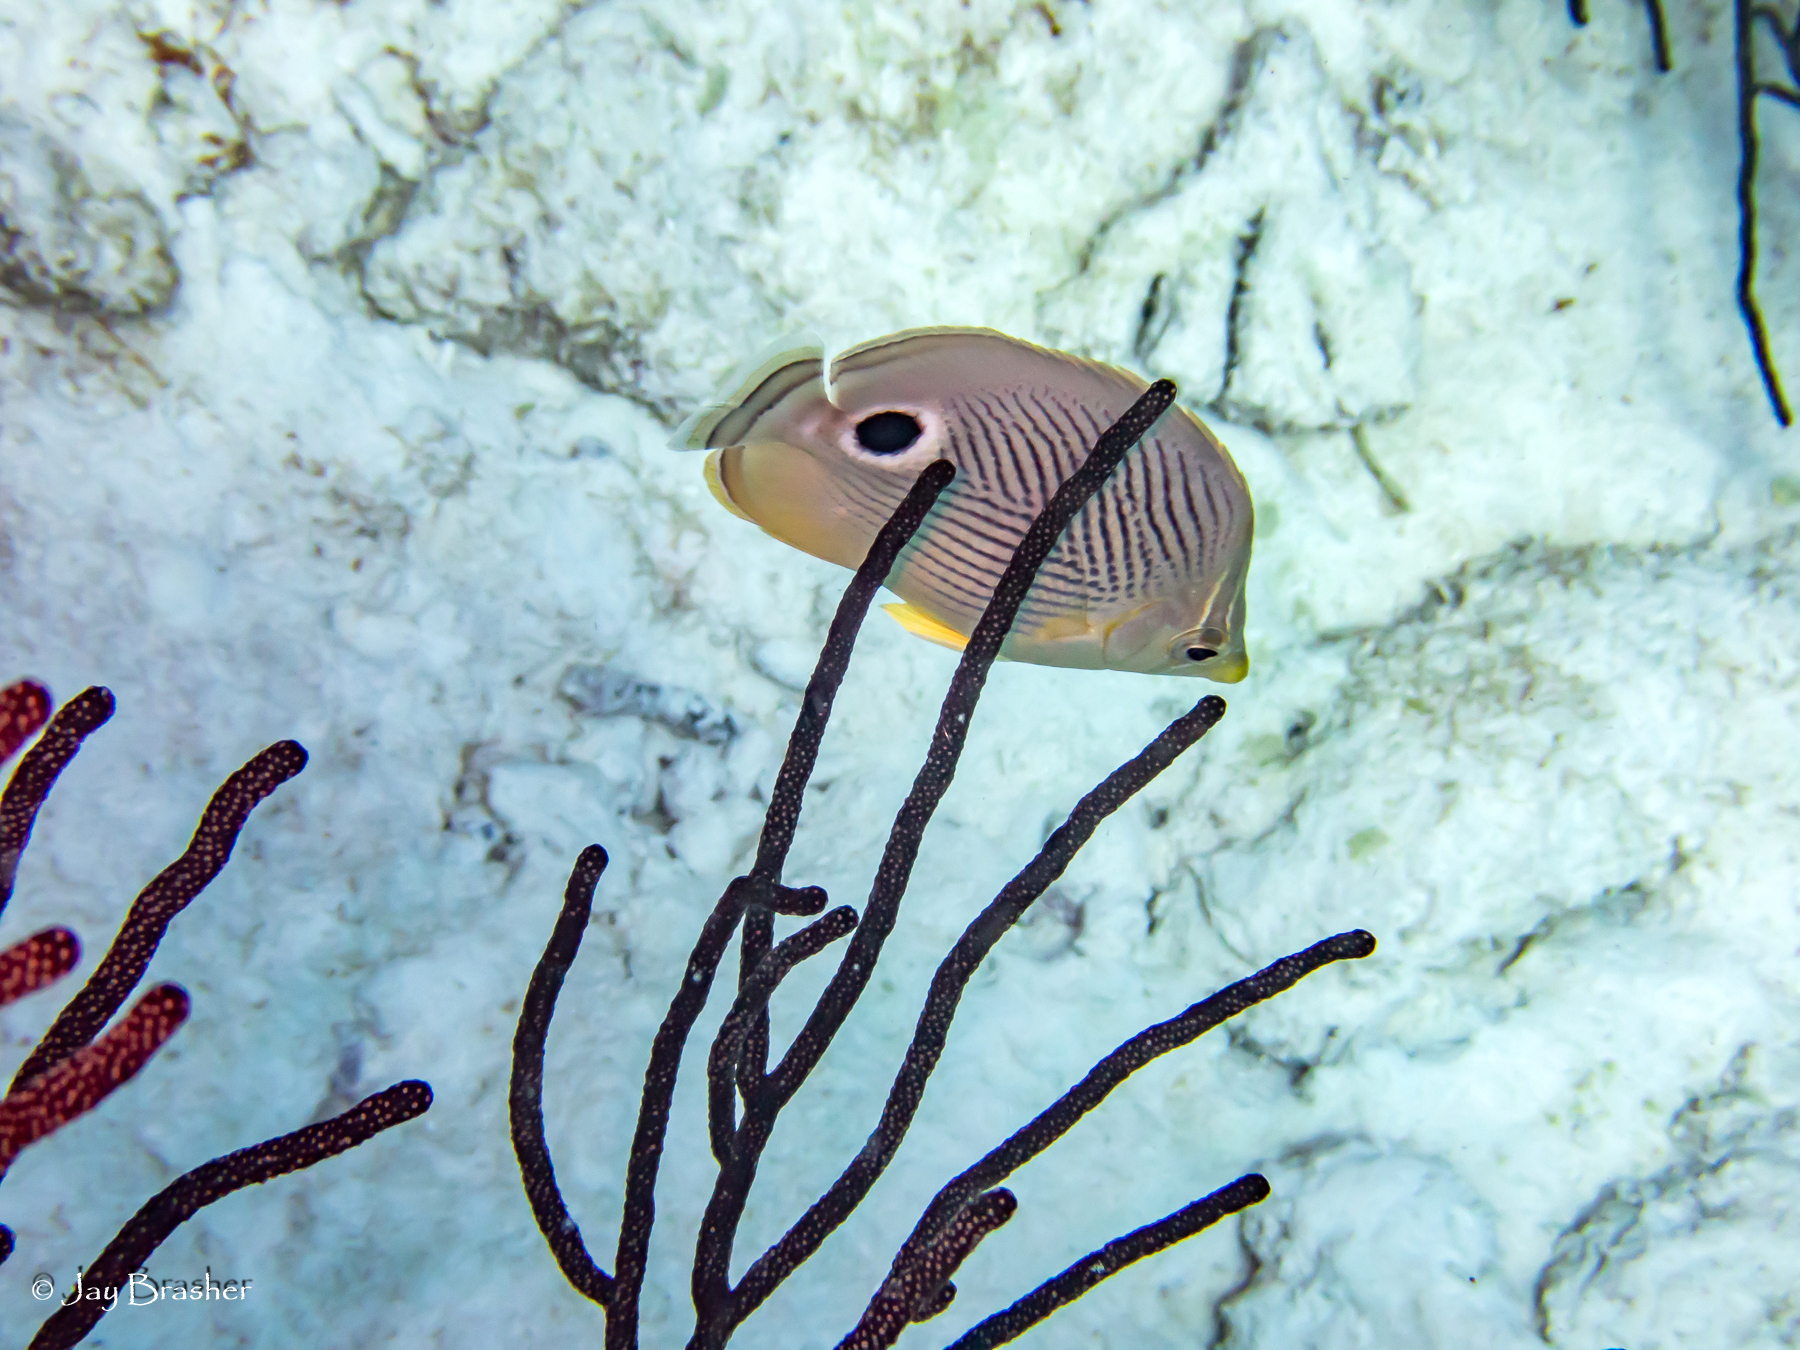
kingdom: Animalia
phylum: Chordata
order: Perciformes
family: Chaetodontidae
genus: Chaetodon
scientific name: Chaetodon capistratus
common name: Kete
